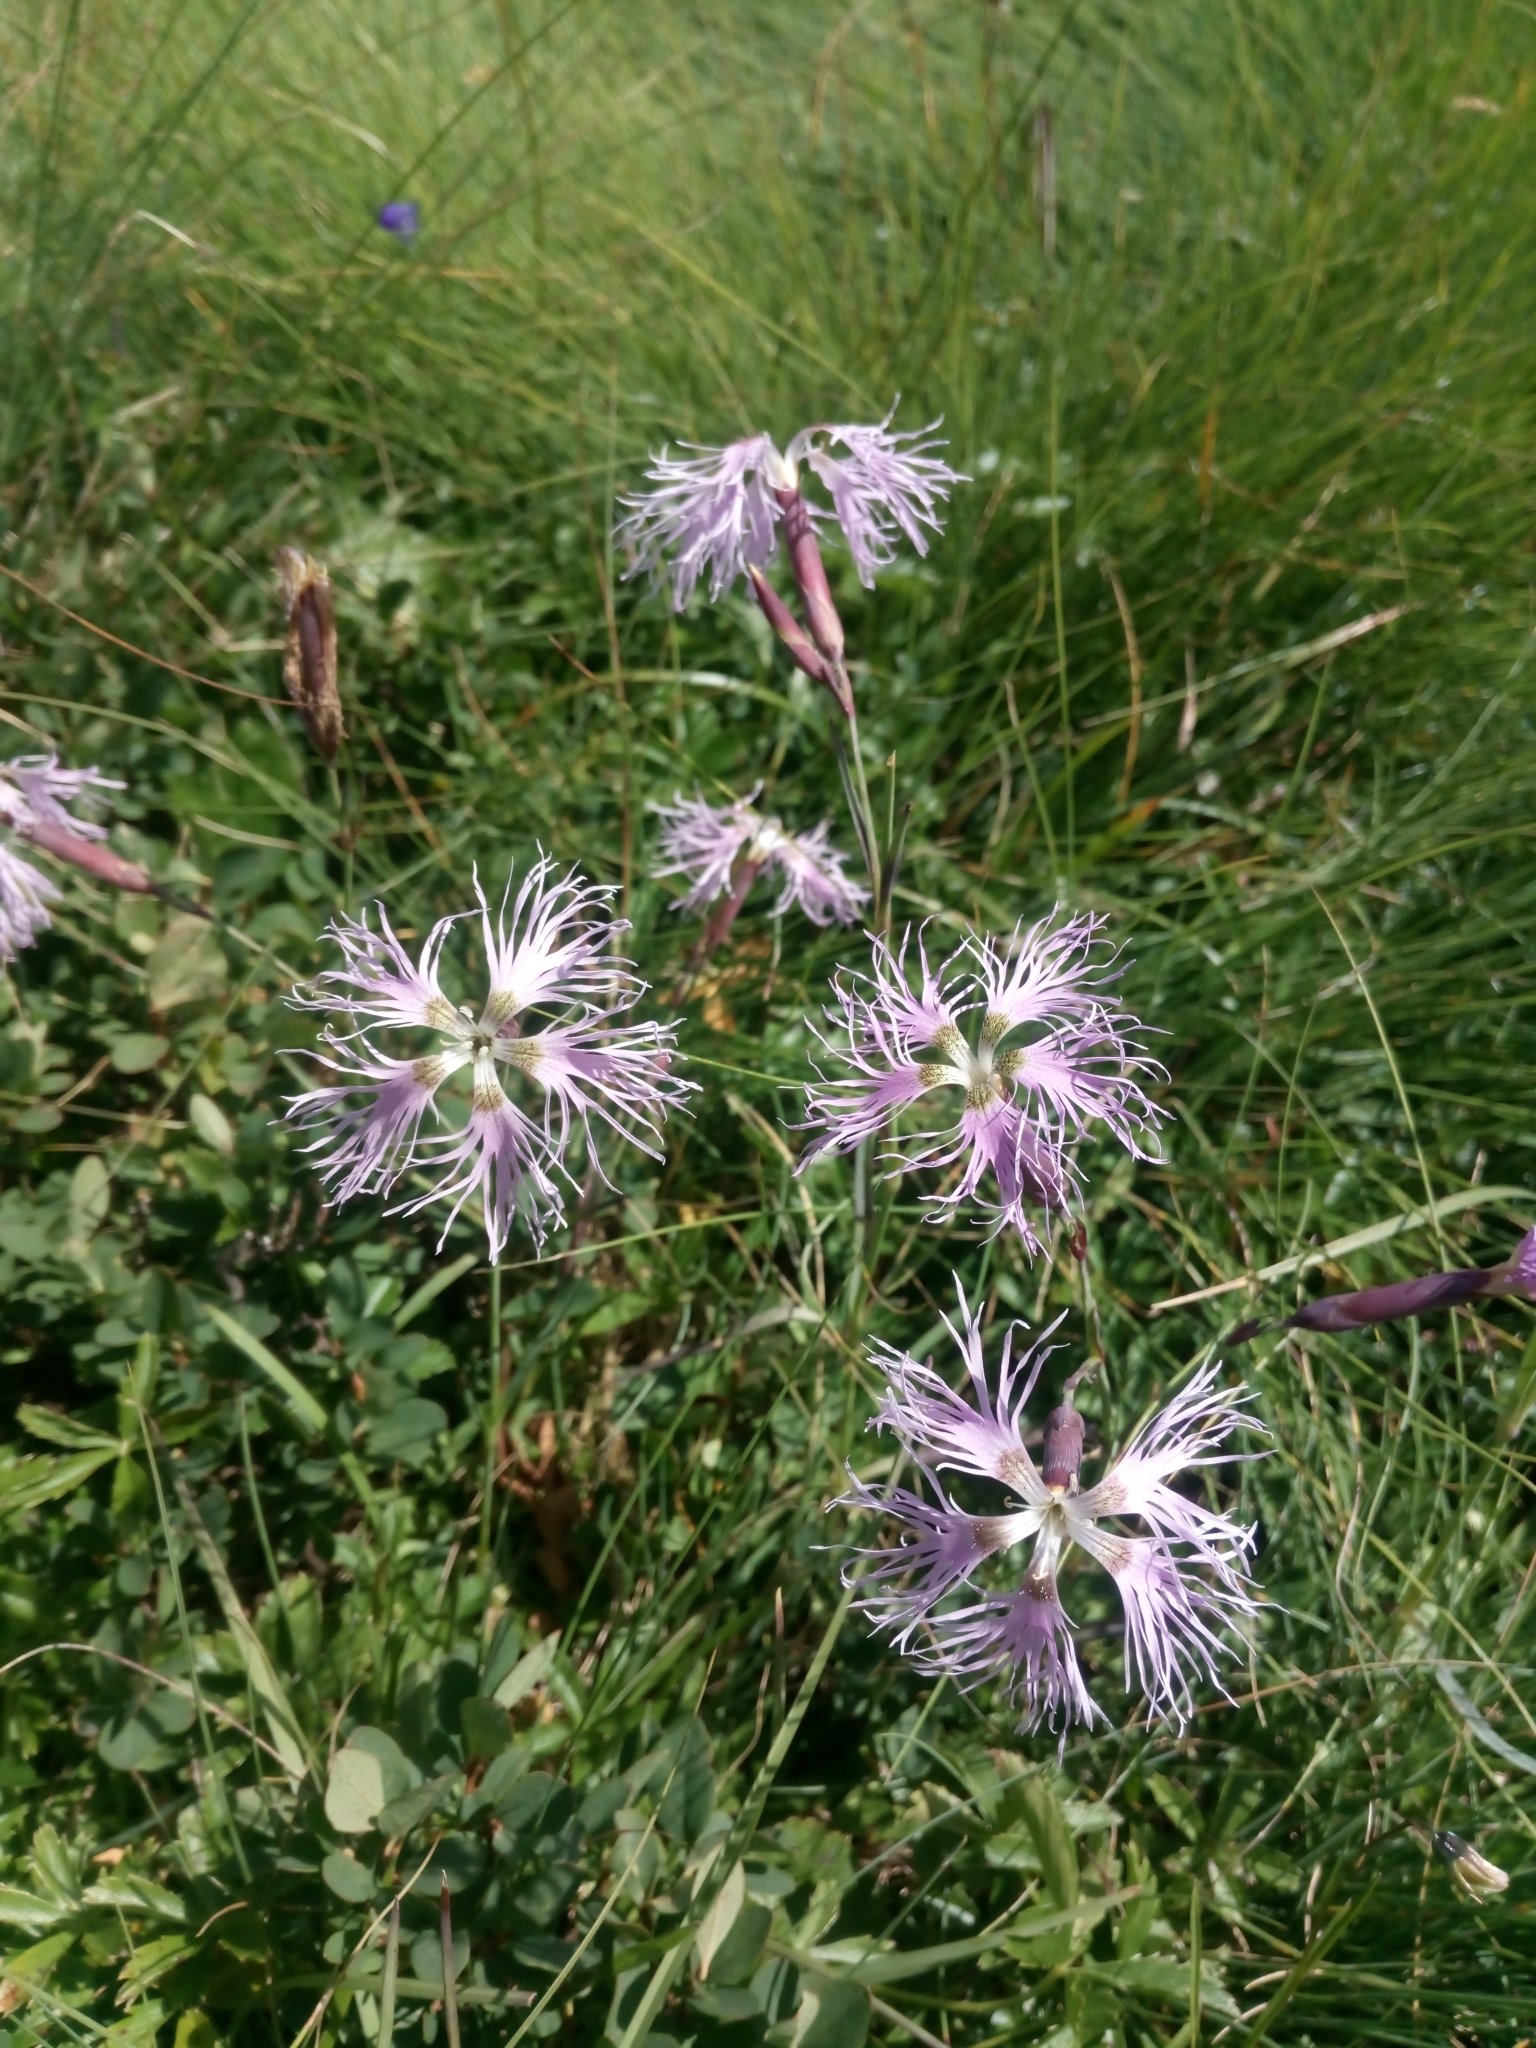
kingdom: Plantae
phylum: Tracheophyta
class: Magnoliopsida
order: Caryophyllales
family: Caryophyllaceae
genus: Dianthus
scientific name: Dianthus superbus
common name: Fringed pink
